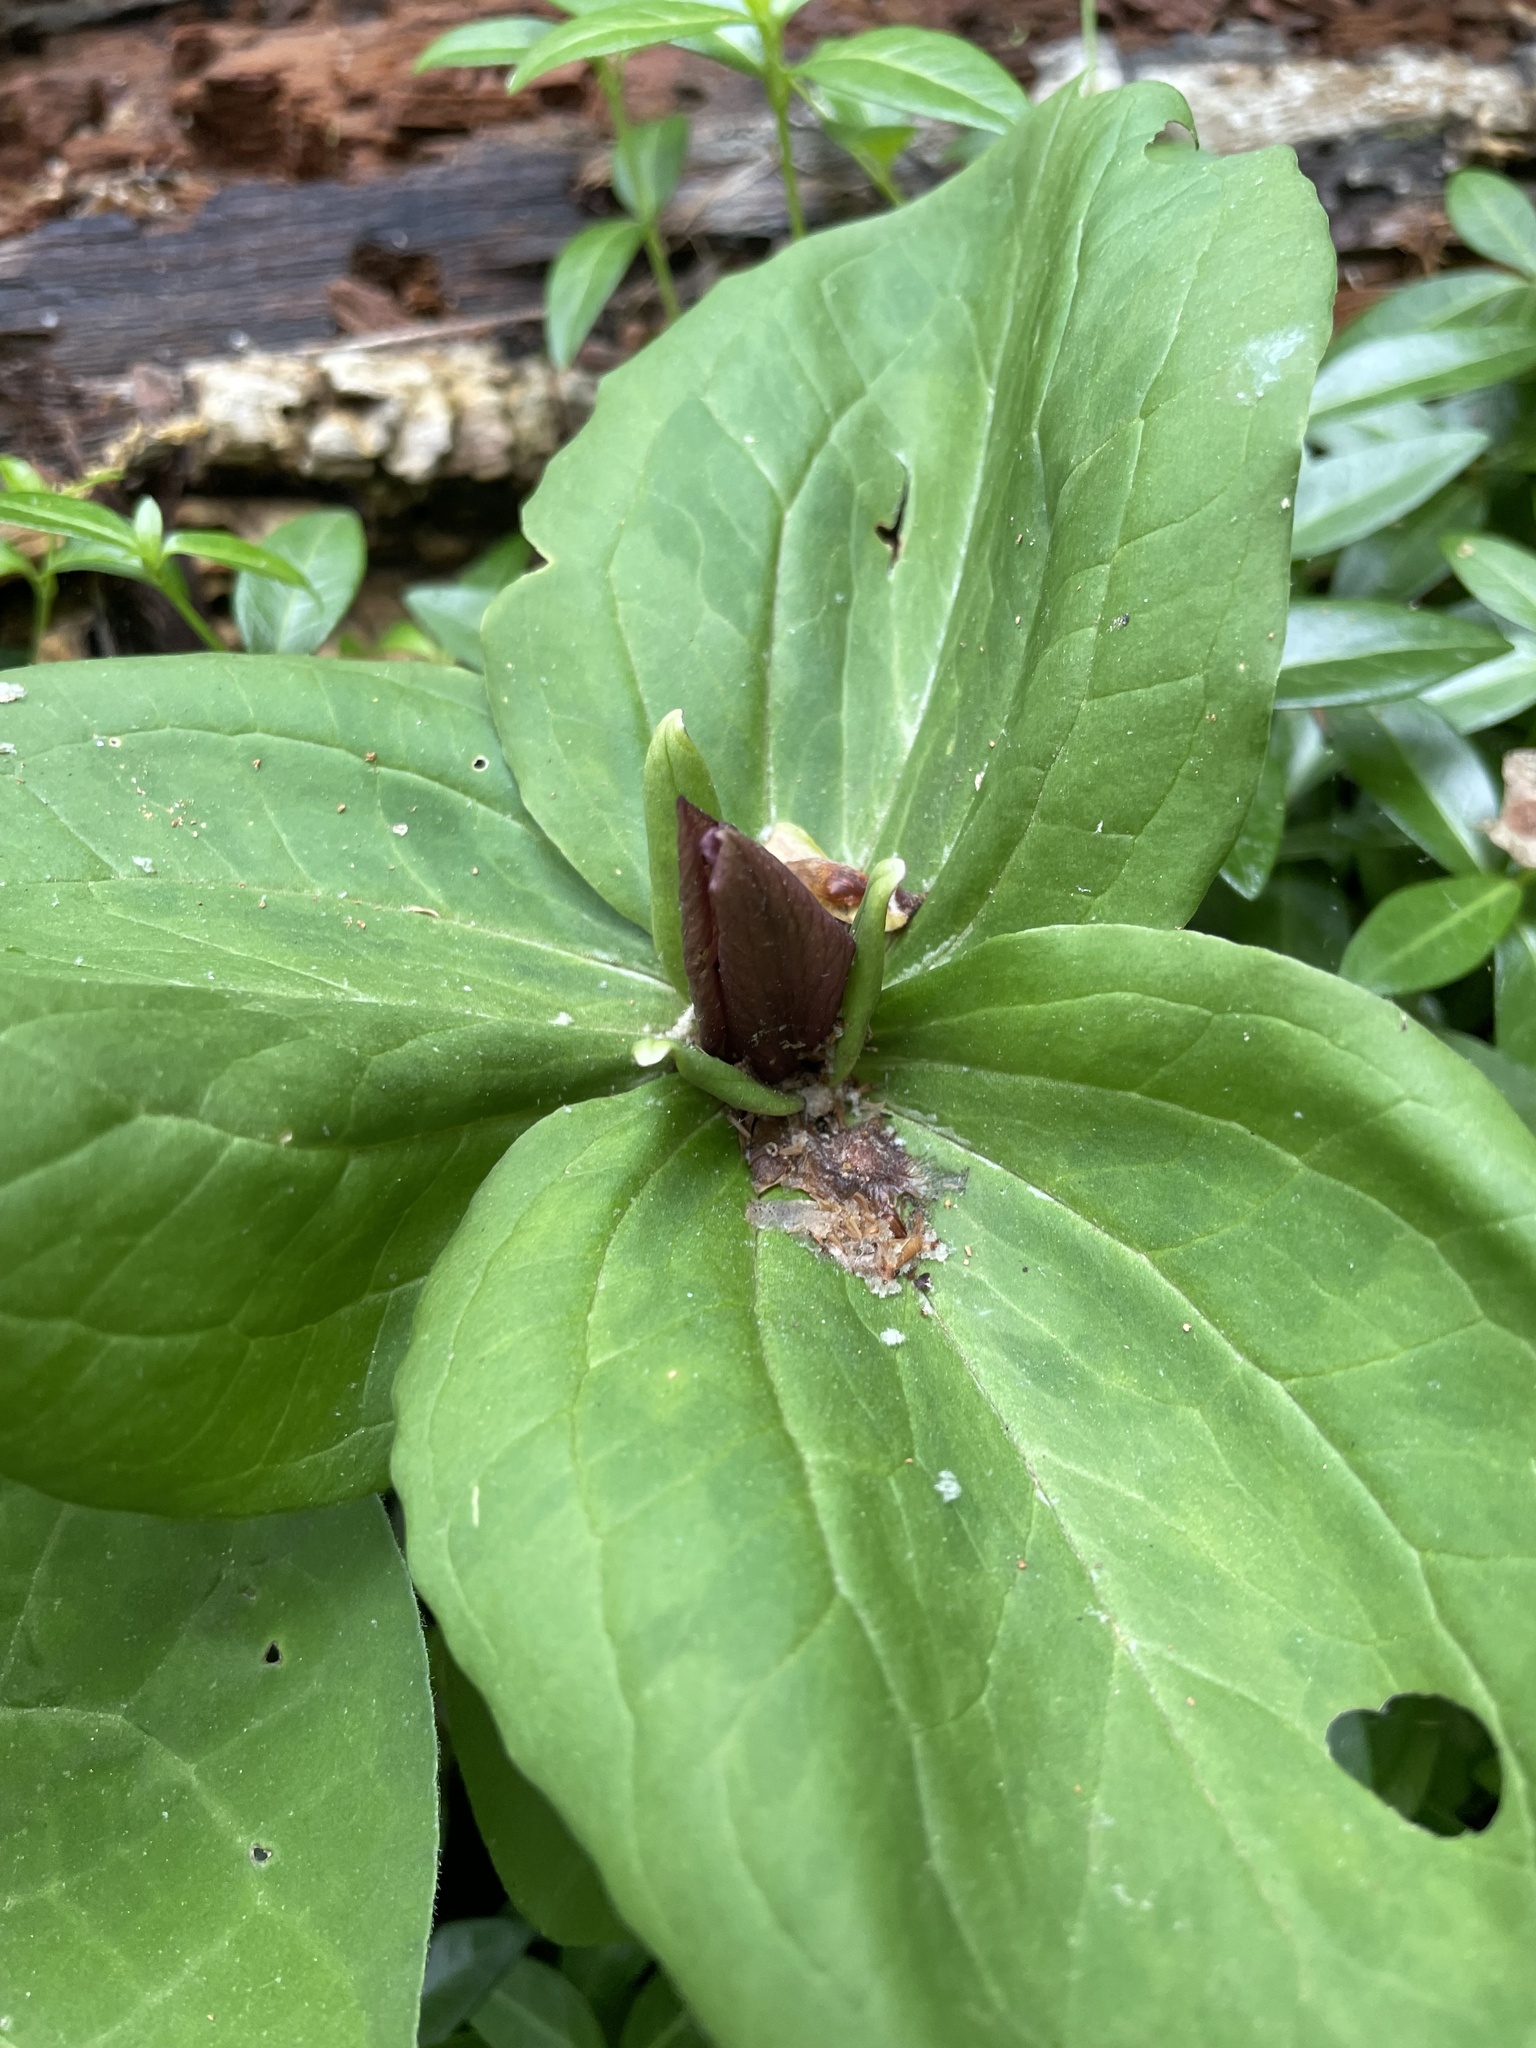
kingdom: Plantae
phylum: Tracheophyta
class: Liliopsida
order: Liliales
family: Melanthiaceae
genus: Trillium
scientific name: Trillium sessile
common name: Sessile trillium
